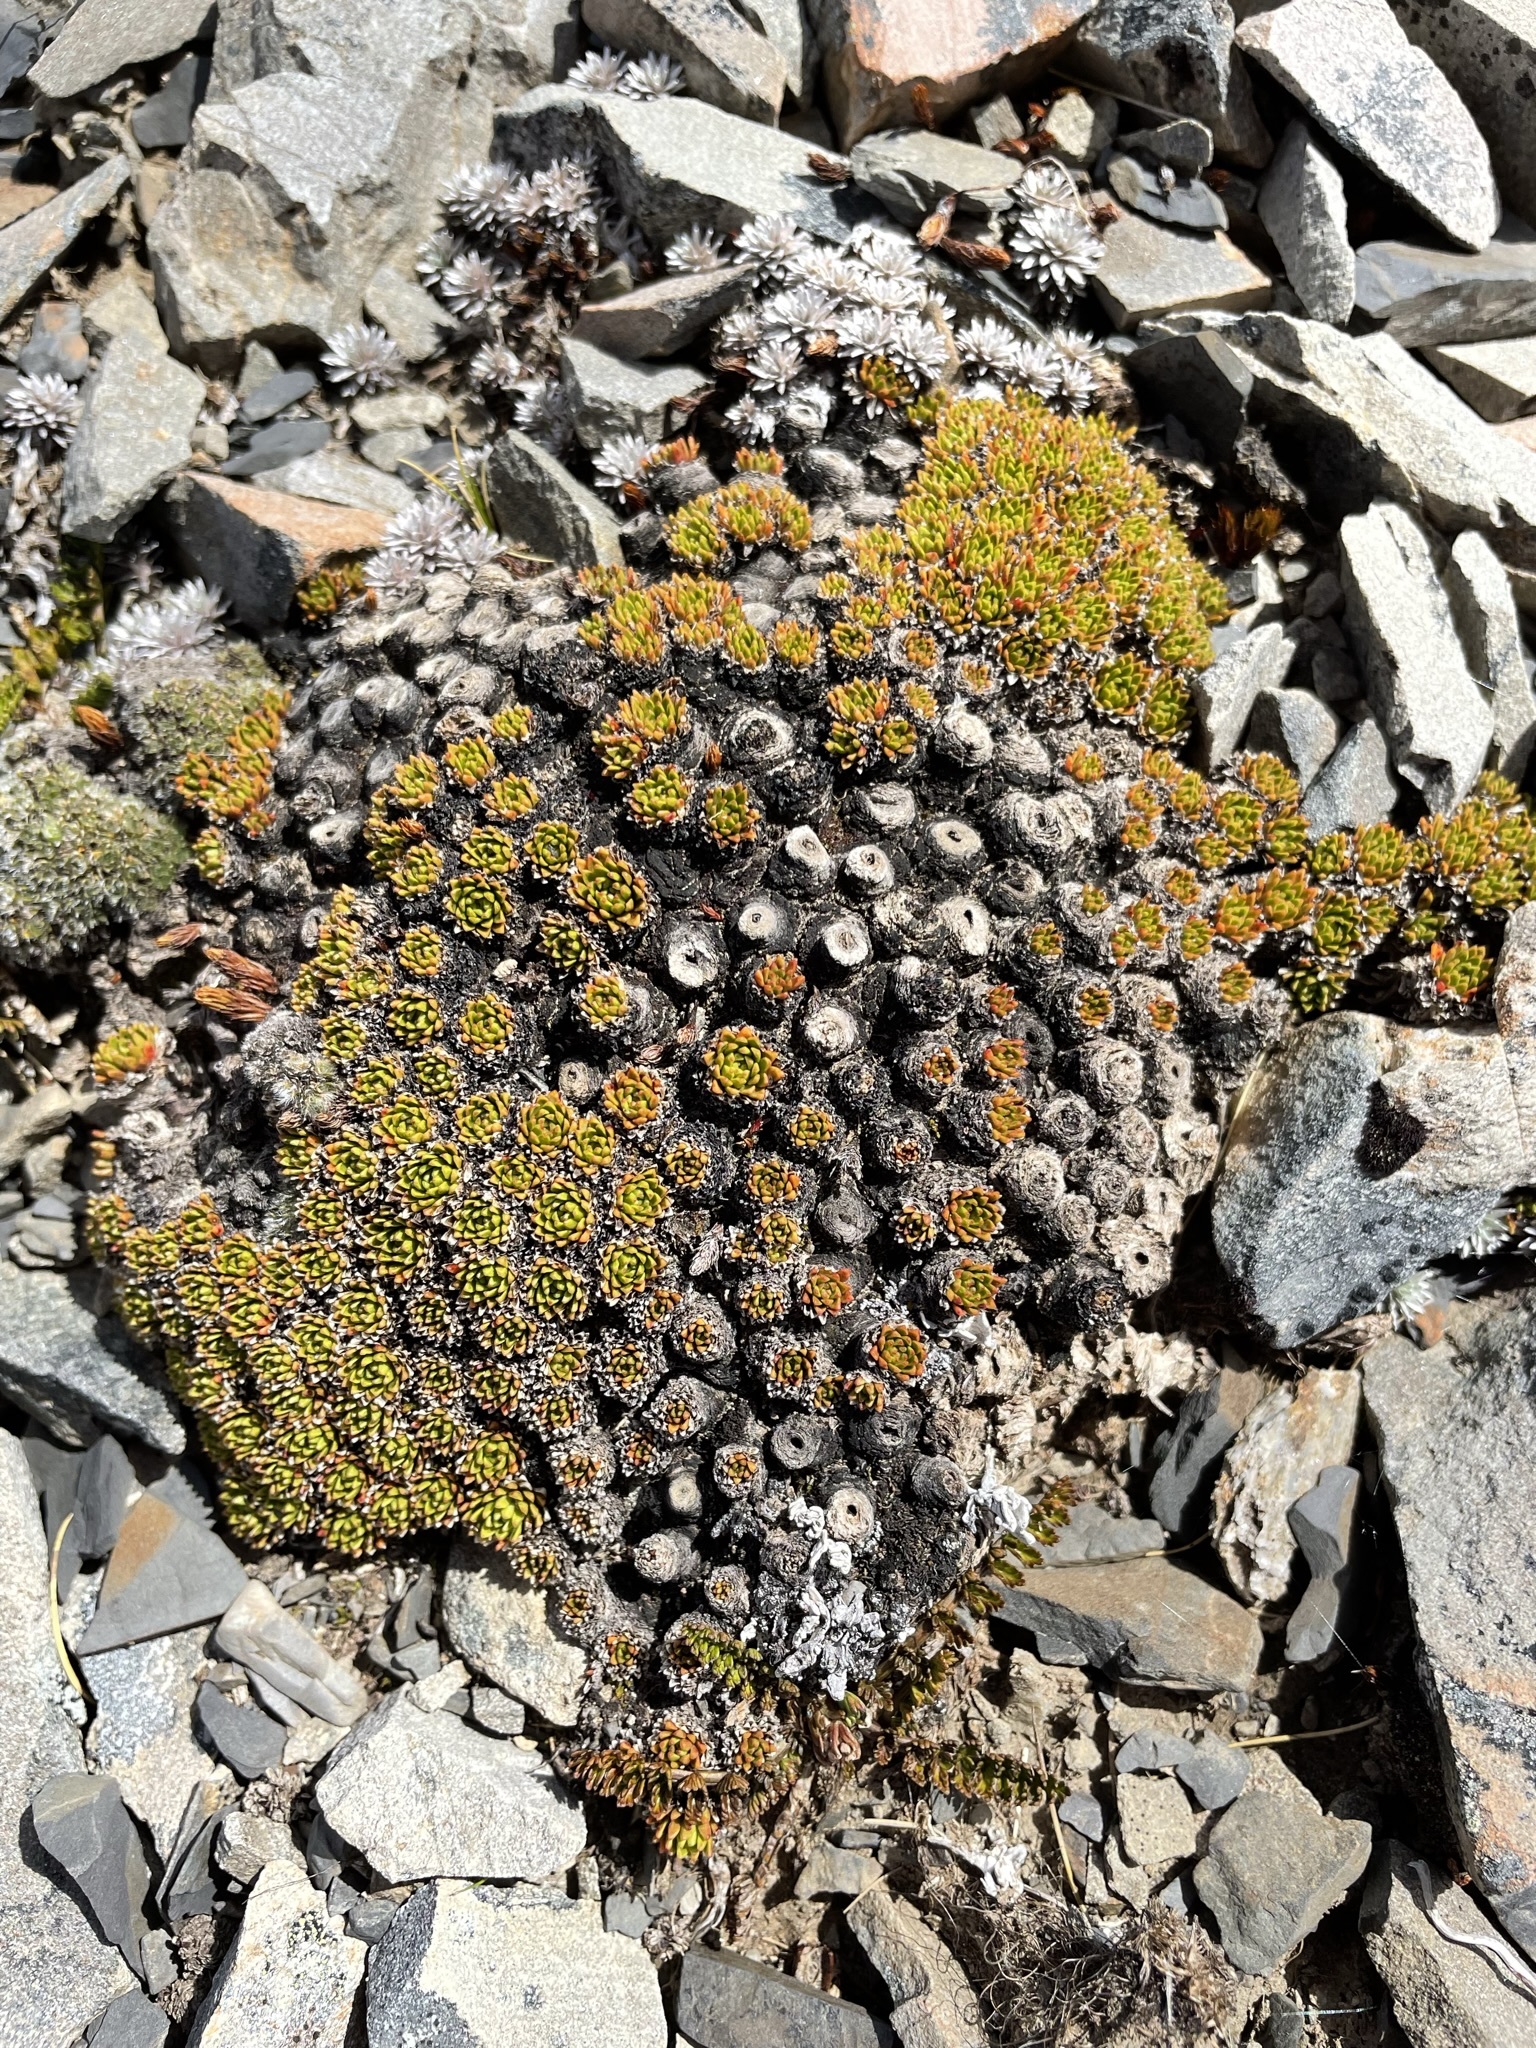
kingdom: Plantae
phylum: Tracheophyta
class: Magnoliopsida
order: Caryophyllales
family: Montiaceae
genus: Hectorella
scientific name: Hectorella caespitosa
